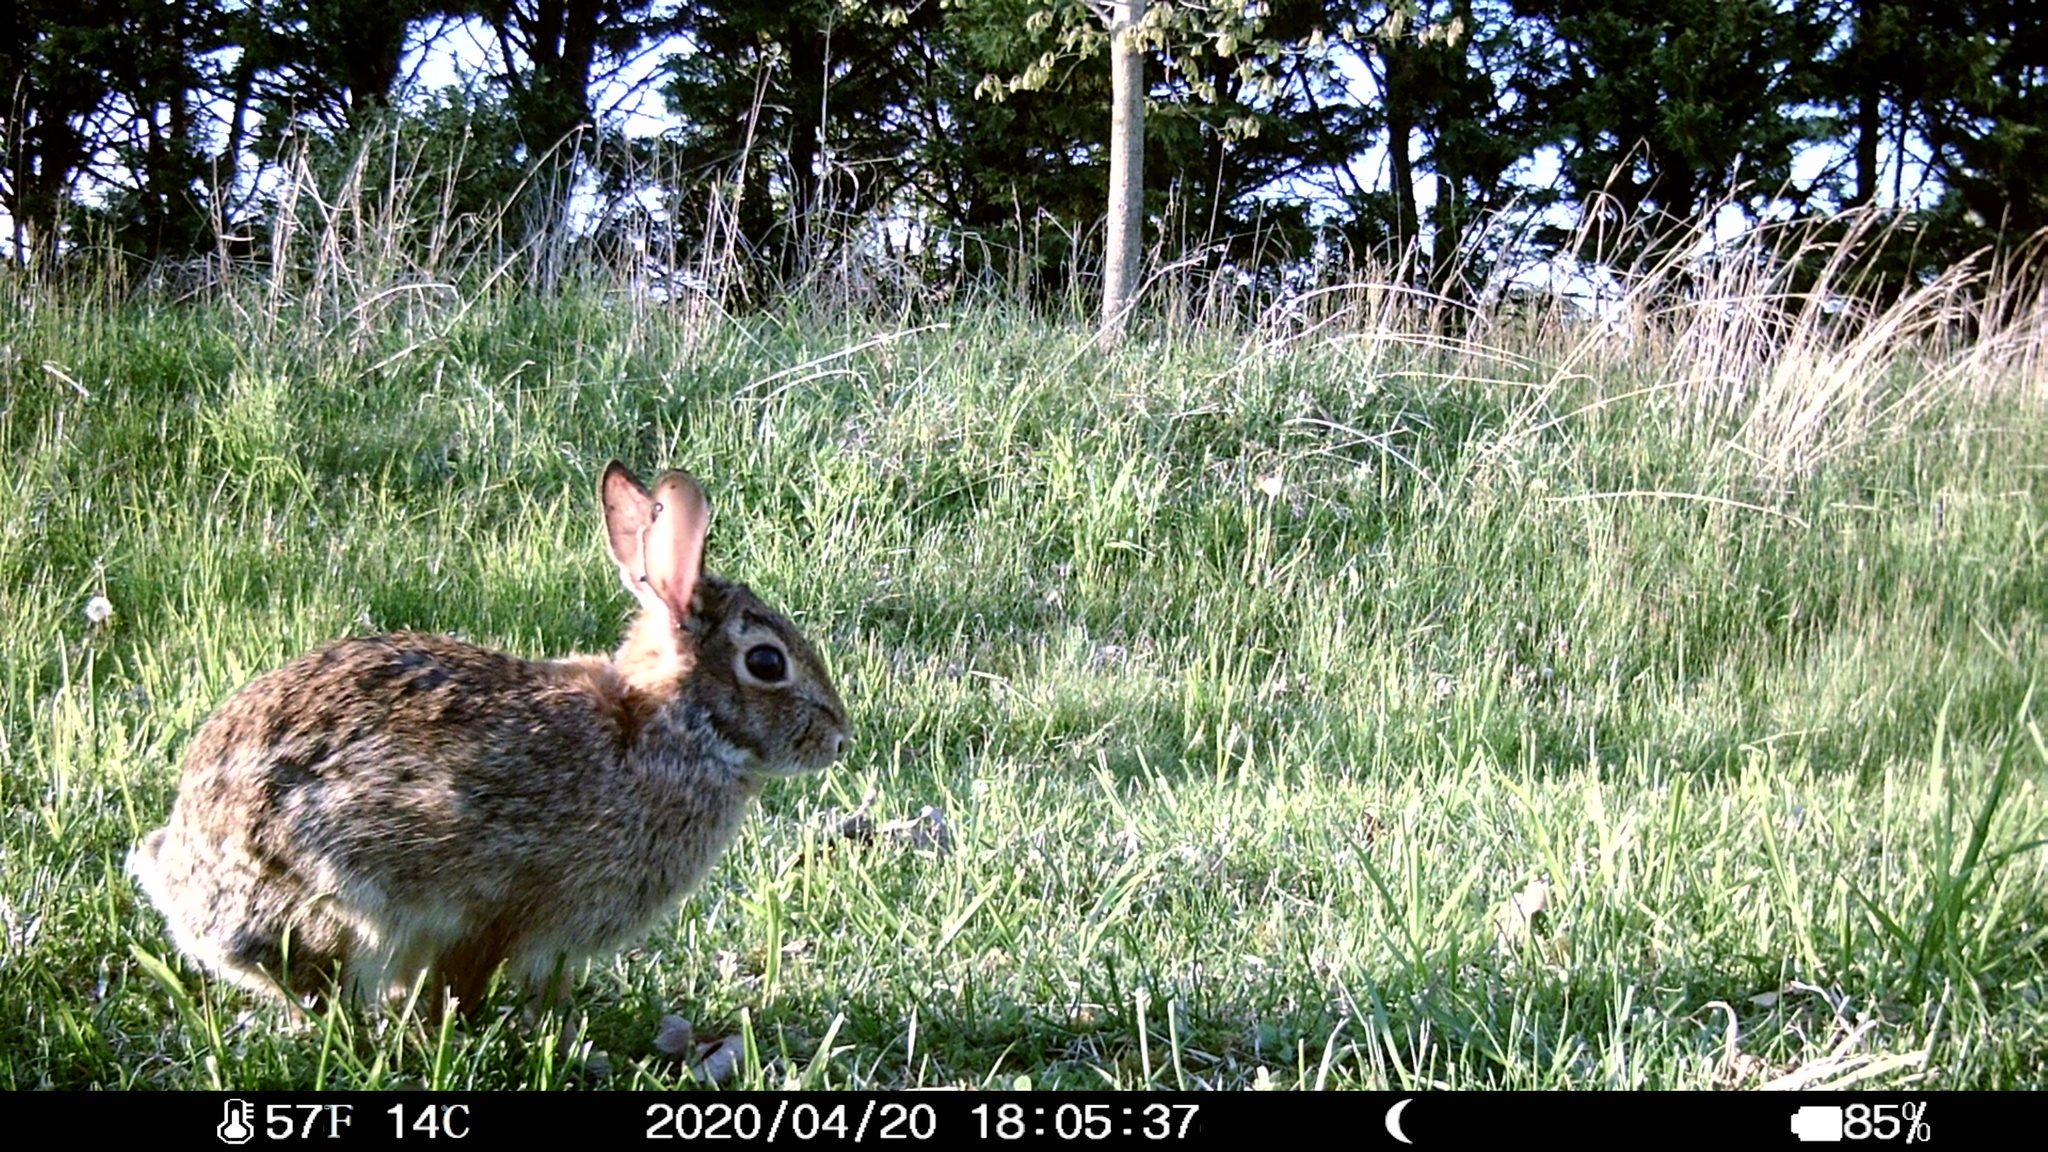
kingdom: Animalia
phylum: Chordata
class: Mammalia
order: Lagomorpha
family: Leporidae
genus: Sylvilagus
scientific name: Sylvilagus floridanus
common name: Eastern cottontail
